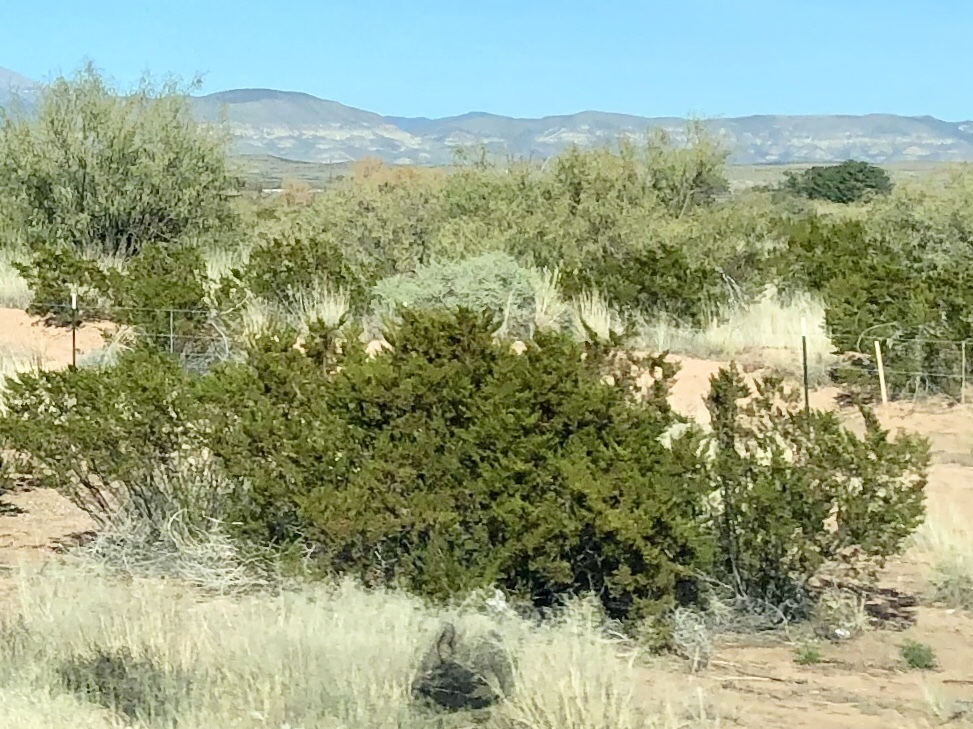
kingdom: Plantae
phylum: Tracheophyta
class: Magnoliopsida
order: Zygophyllales
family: Zygophyllaceae
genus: Larrea
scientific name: Larrea tridentata
